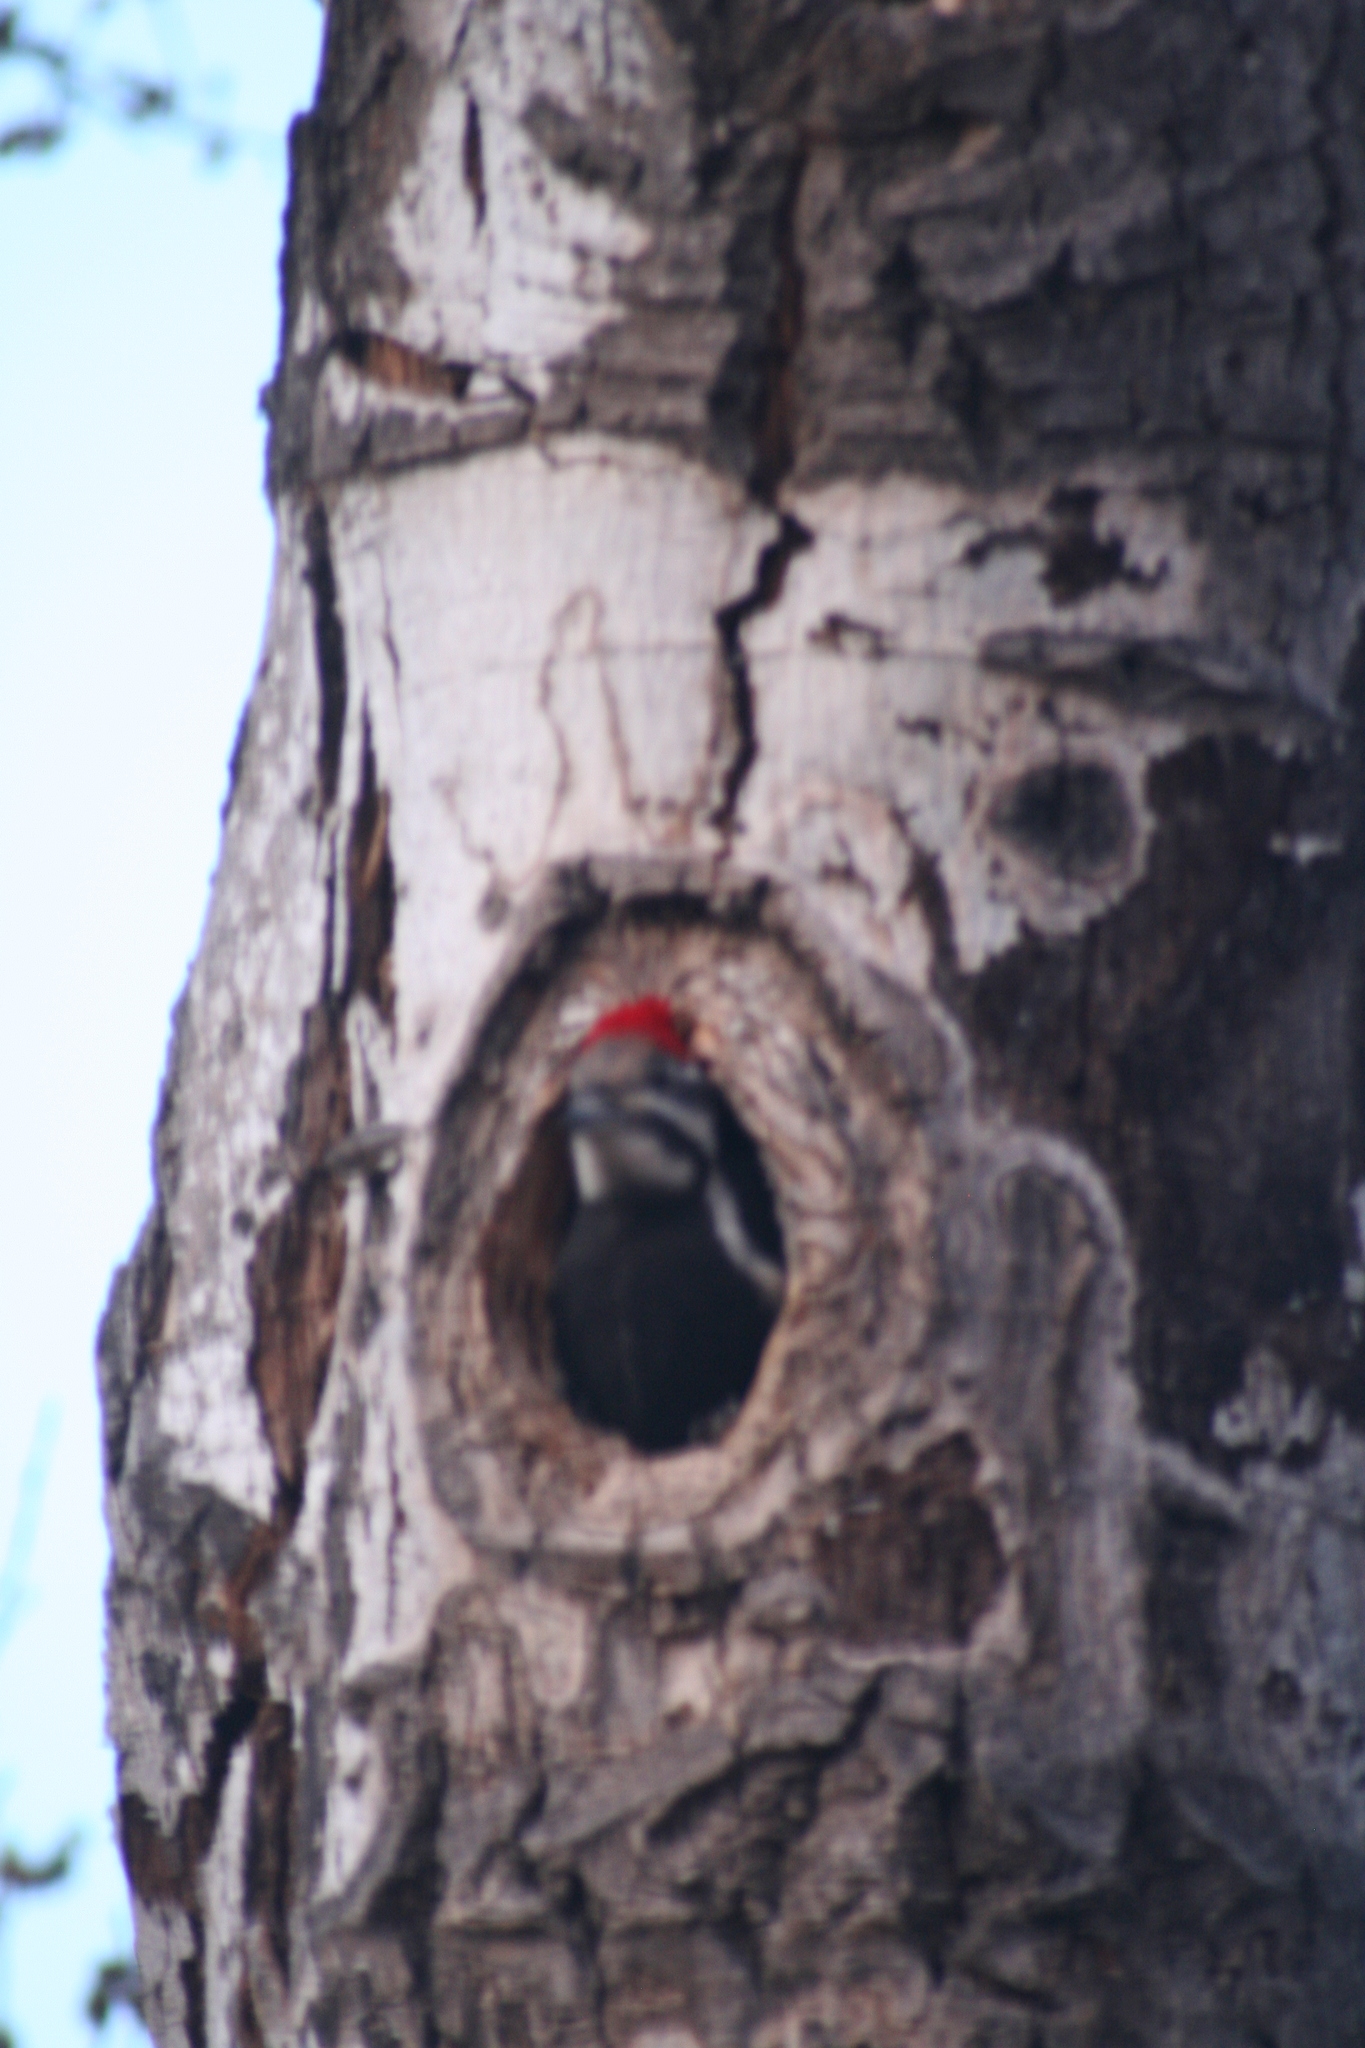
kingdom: Animalia
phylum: Chordata
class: Aves
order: Piciformes
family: Picidae
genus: Dryocopus
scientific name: Dryocopus pileatus
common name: Pileated woodpecker
